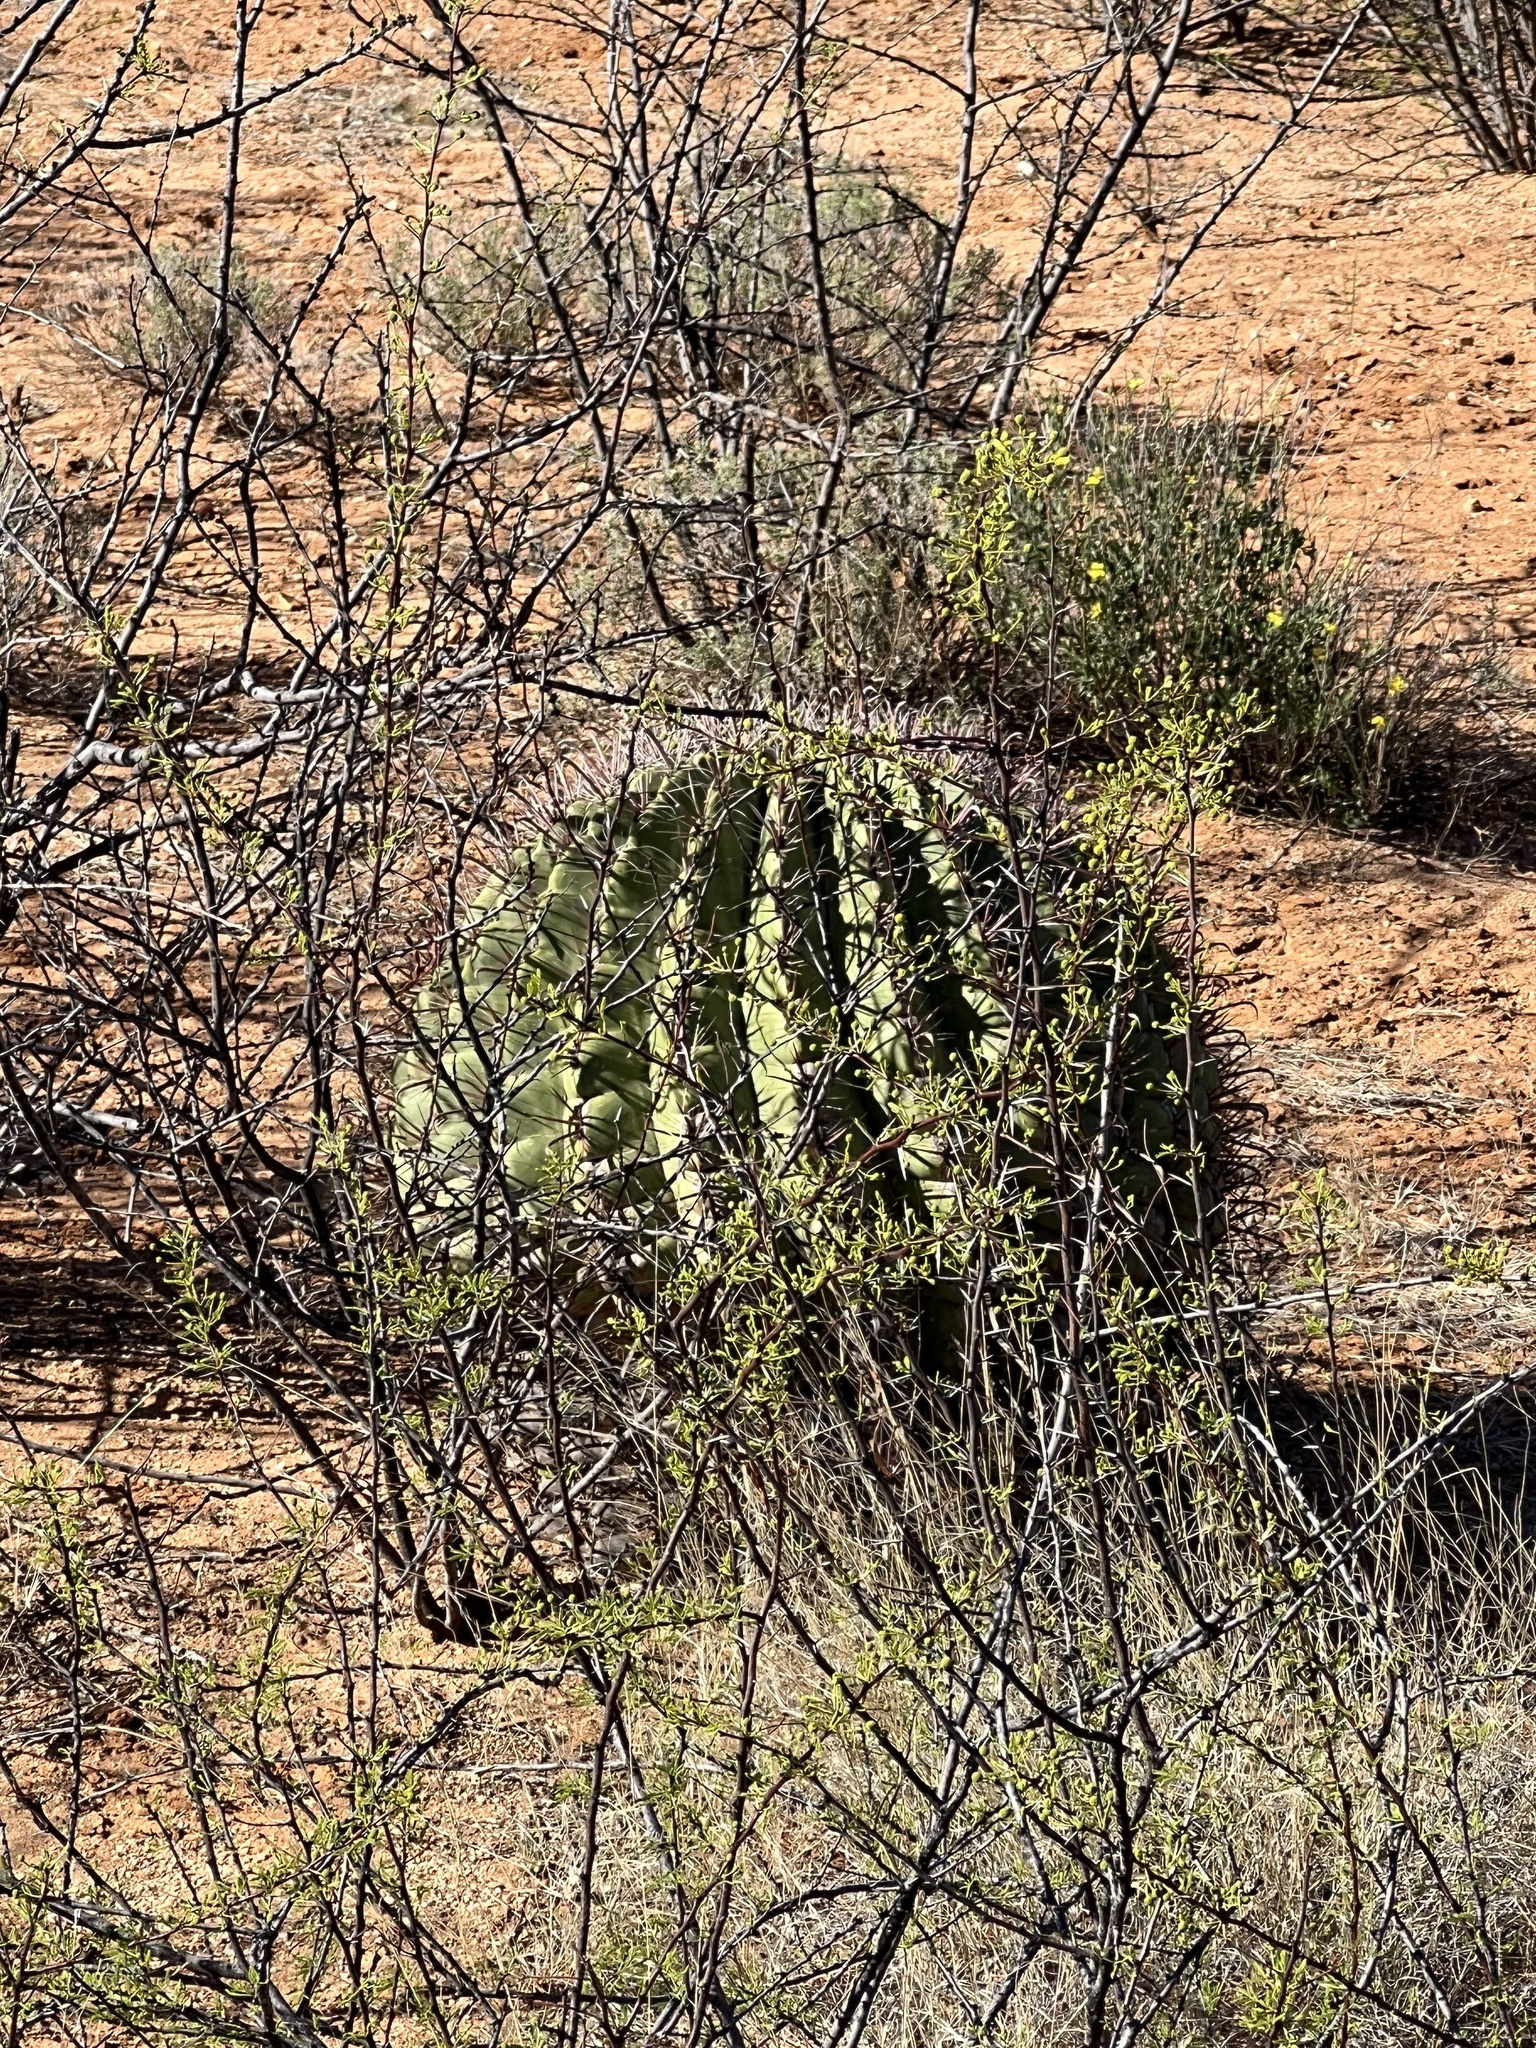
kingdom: Plantae
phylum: Tracheophyta
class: Magnoliopsida
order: Caryophyllales
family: Cactaceae
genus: Ferocactus
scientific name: Ferocactus wislizeni
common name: Candy barrel cactus
